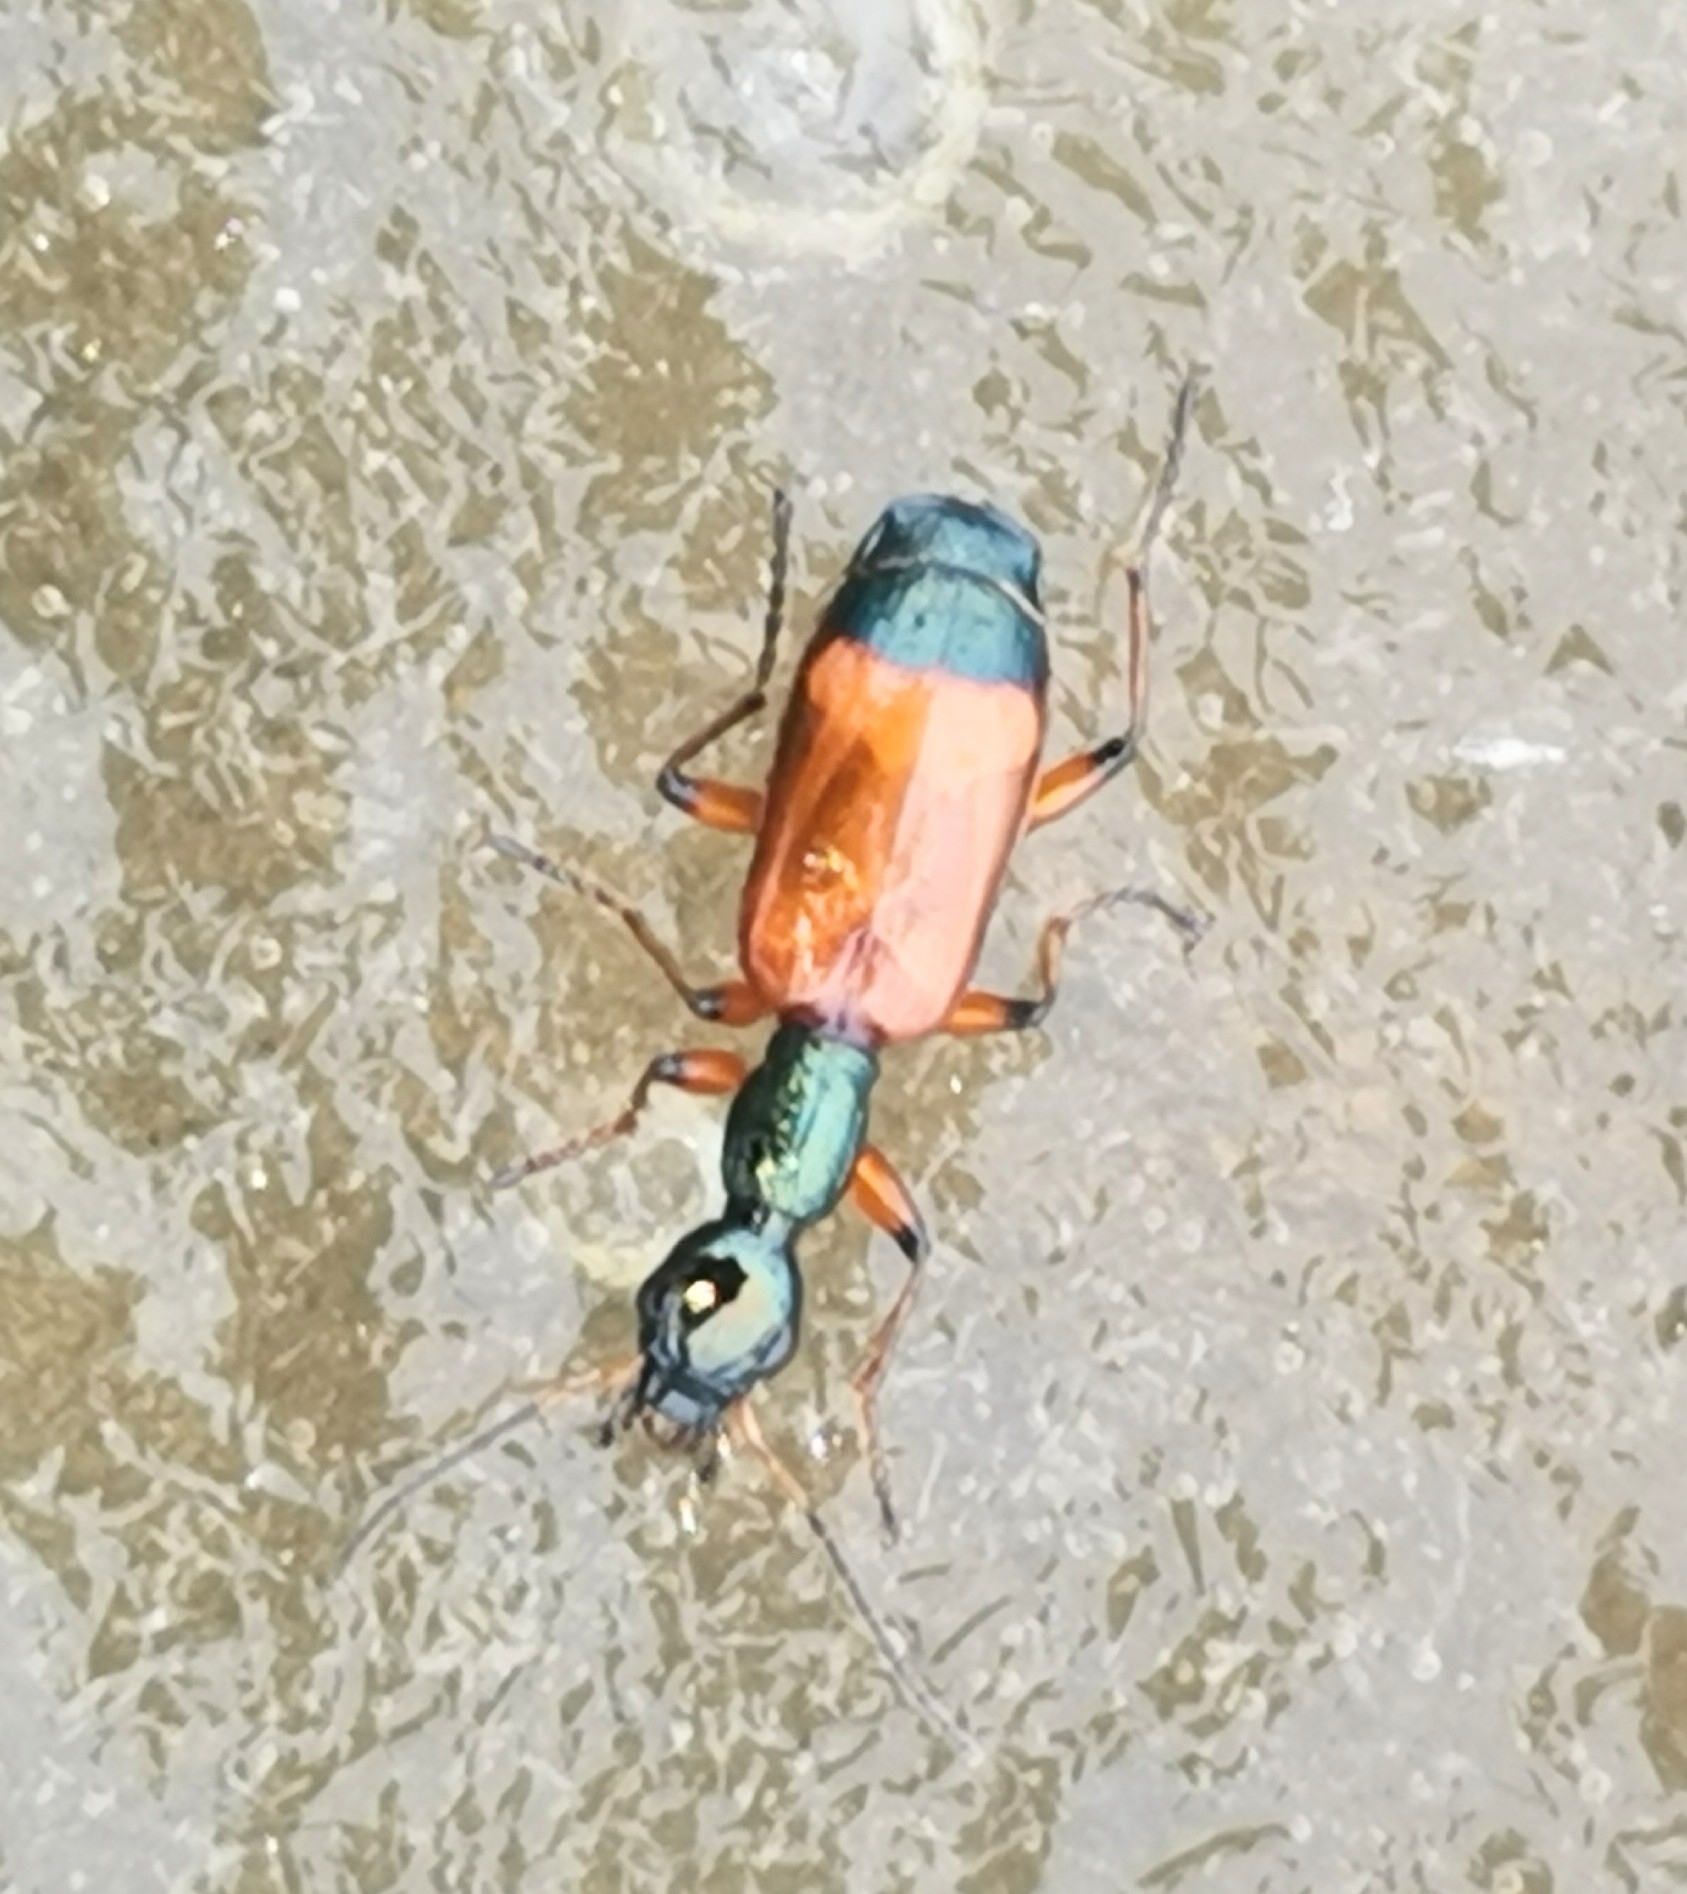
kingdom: Animalia
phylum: Arthropoda
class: Insecta
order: Coleoptera
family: Carabidae
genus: Odacantha
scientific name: Odacantha melanura
